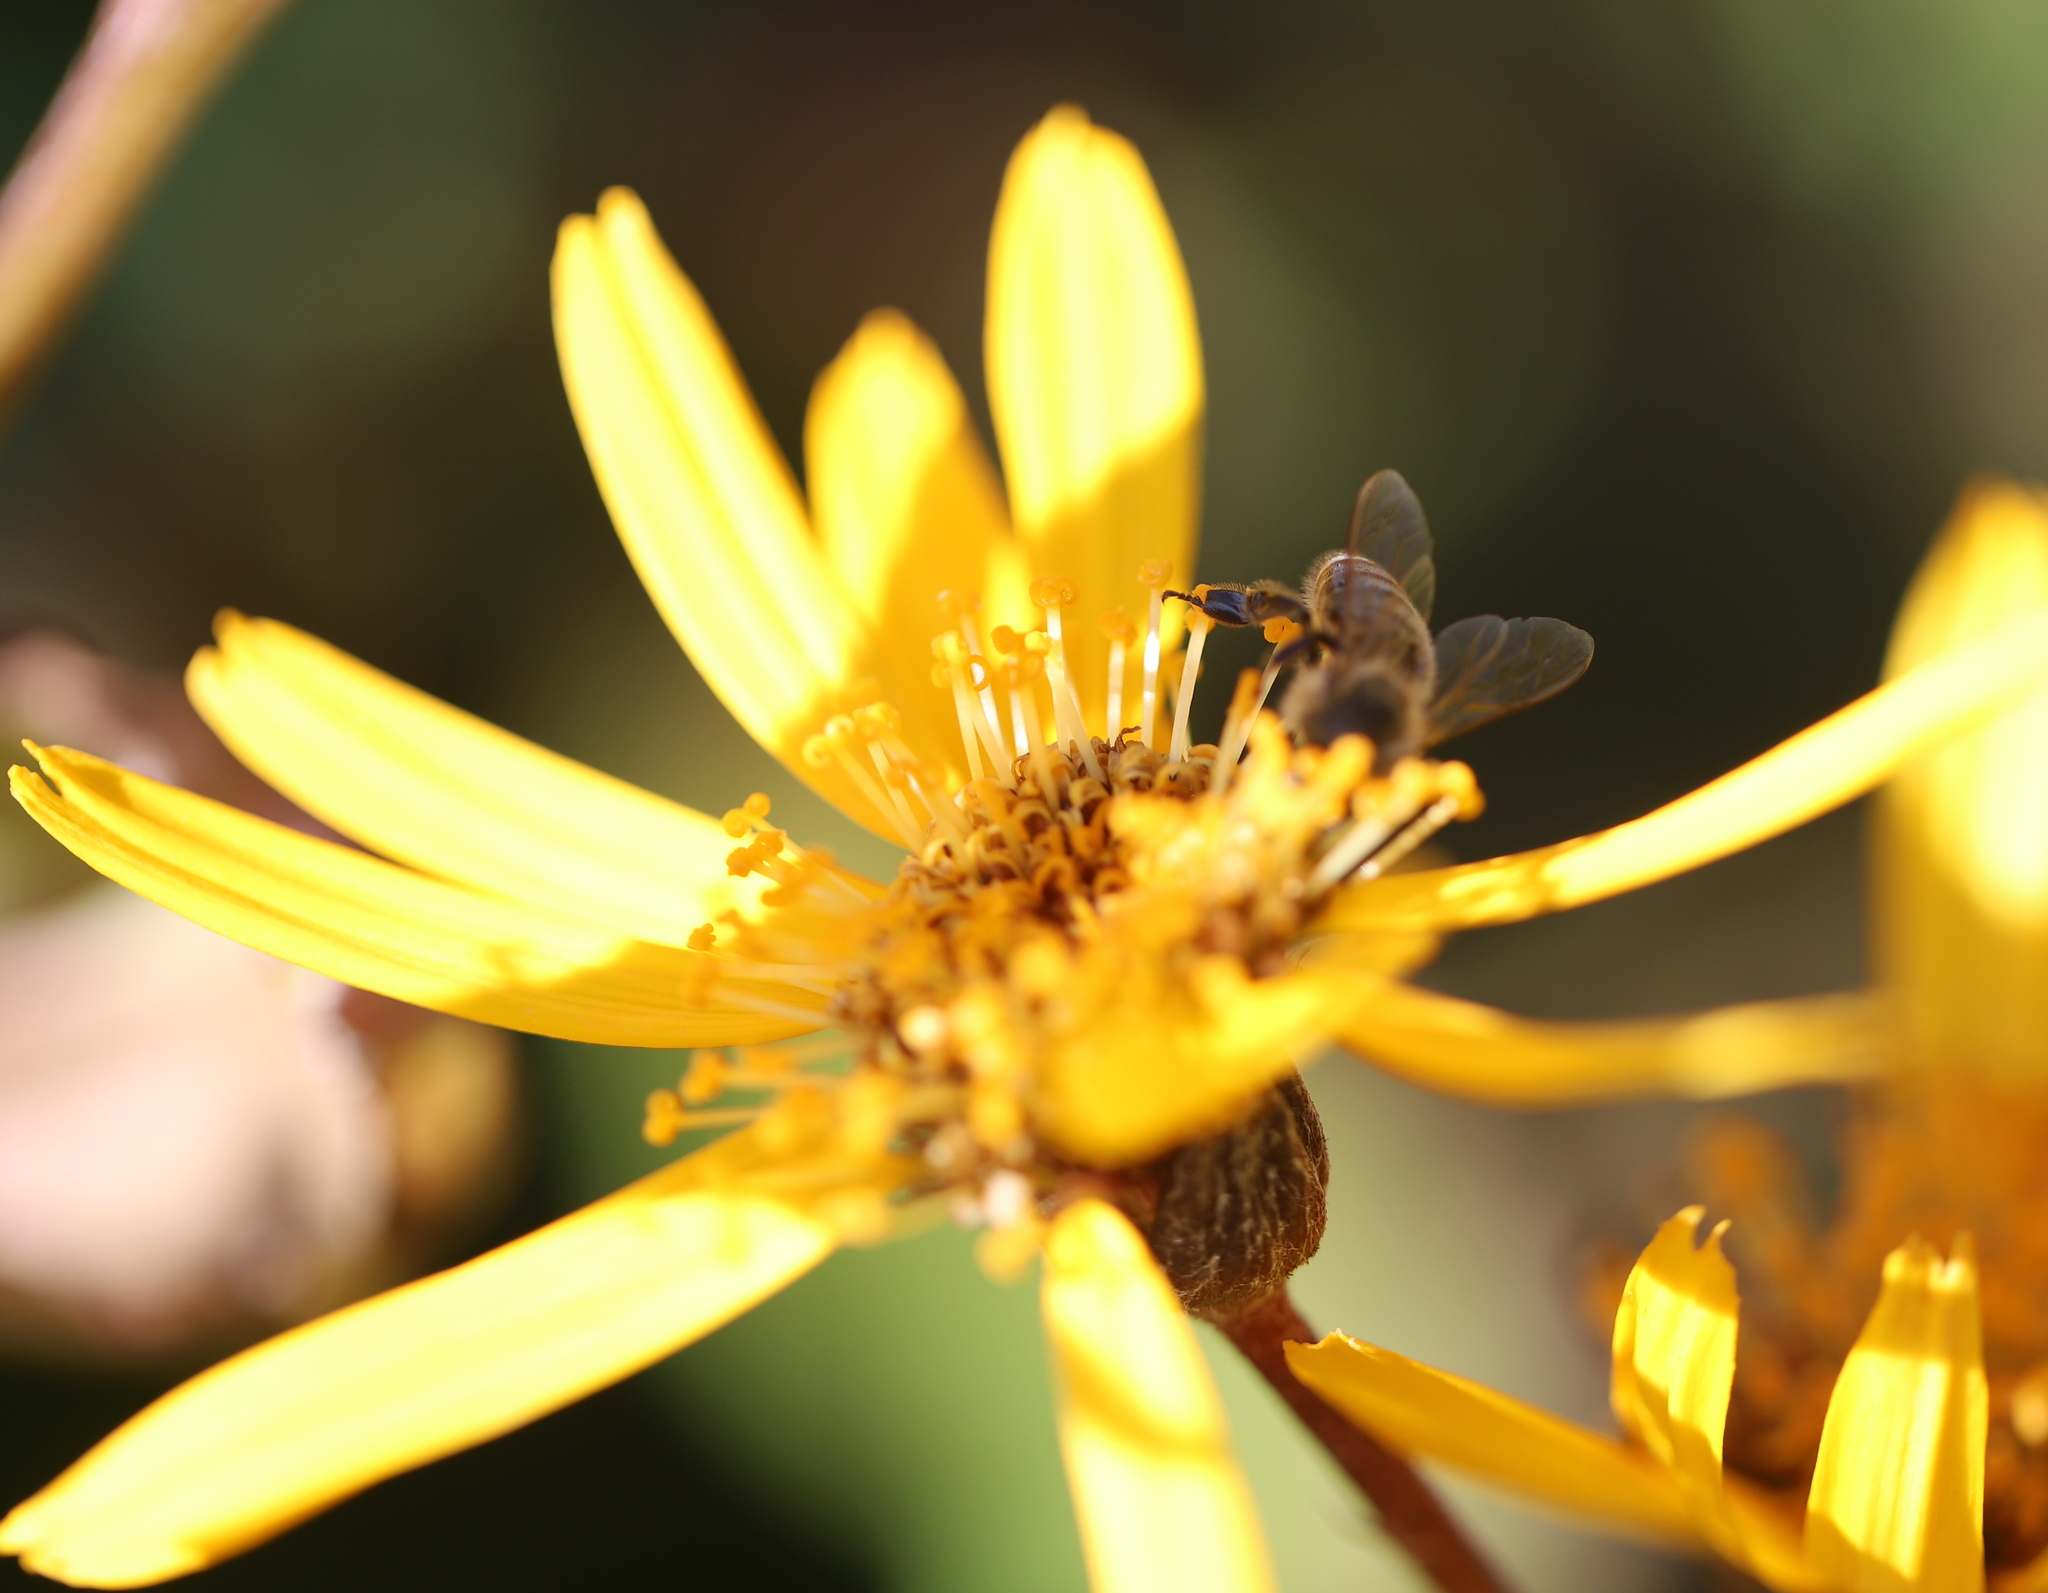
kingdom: Animalia
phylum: Arthropoda
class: Insecta
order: Hymenoptera
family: Apidae
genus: Apis
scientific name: Apis mellifera
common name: Honey bee
